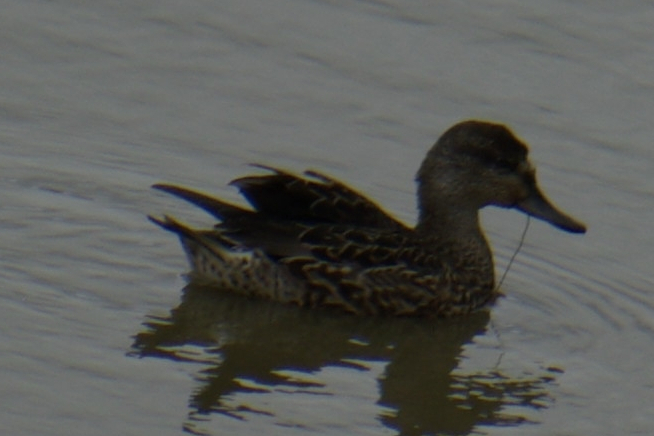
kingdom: Animalia
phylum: Chordata
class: Aves
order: Anseriformes
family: Anatidae
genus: Anas
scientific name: Anas crecca
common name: Eurasian teal
